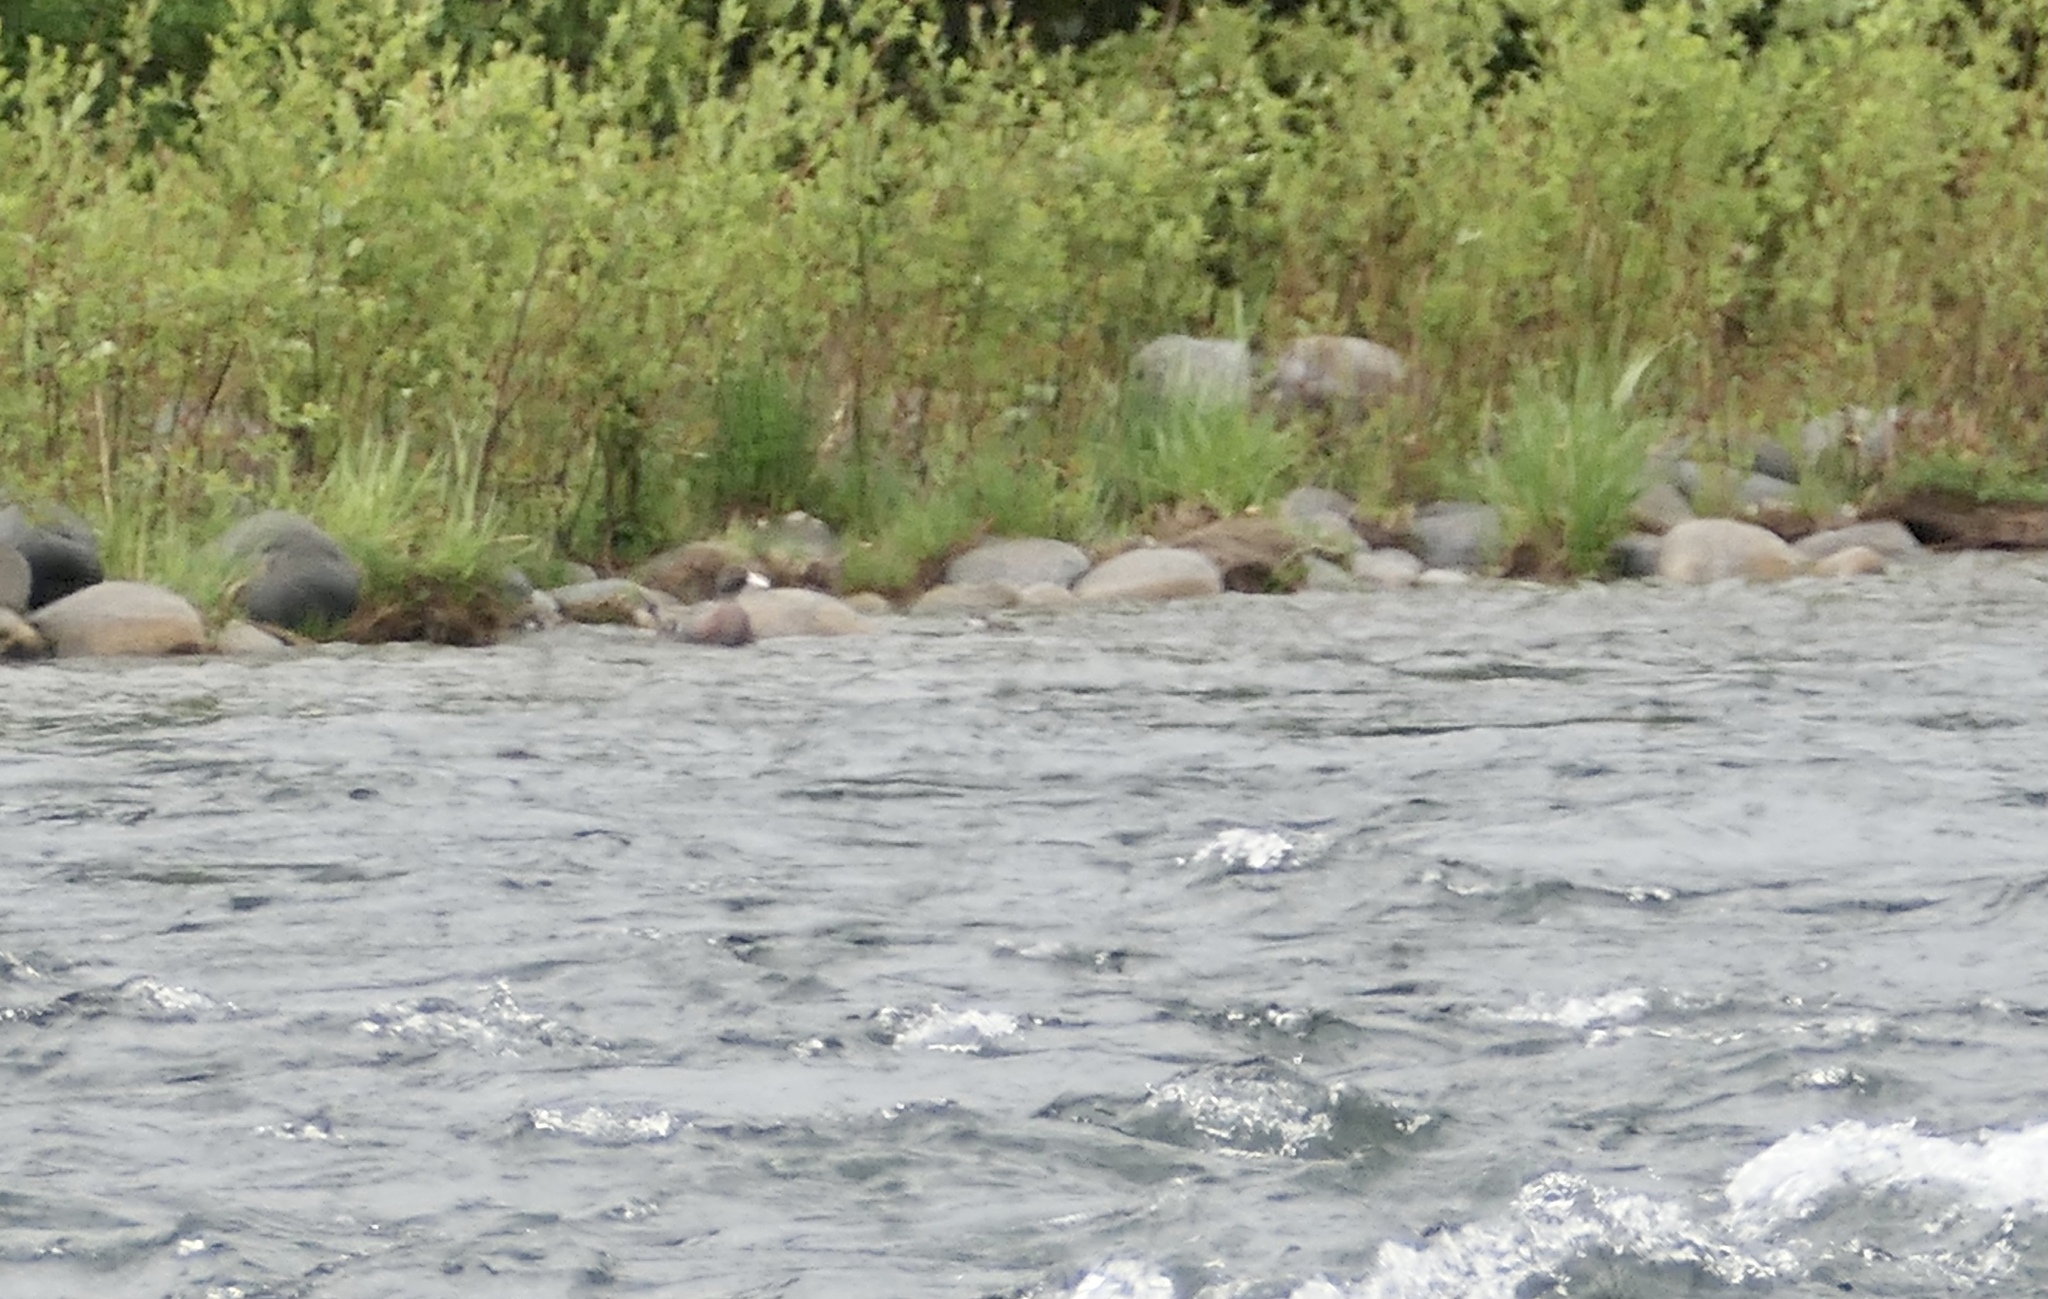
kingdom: Animalia
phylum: Chordata
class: Aves
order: Anseriformes
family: Anatidae
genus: Hymenolaimus
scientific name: Hymenolaimus malacorhynchos
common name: Blue duck
